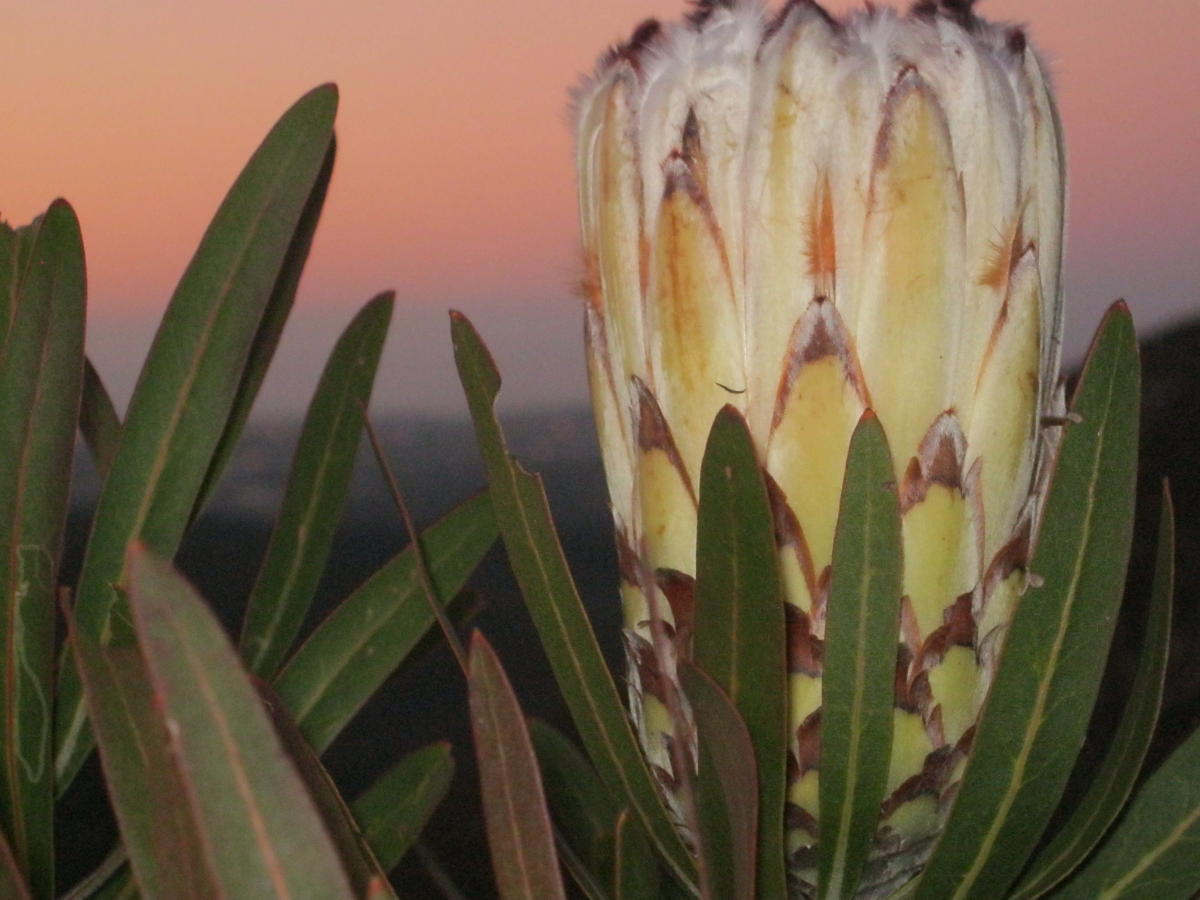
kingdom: Plantae
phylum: Tracheophyta
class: Magnoliopsida
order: Proteales
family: Proteaceae
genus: Protea
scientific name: Protea neriifolia
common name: Blue sugarbush
